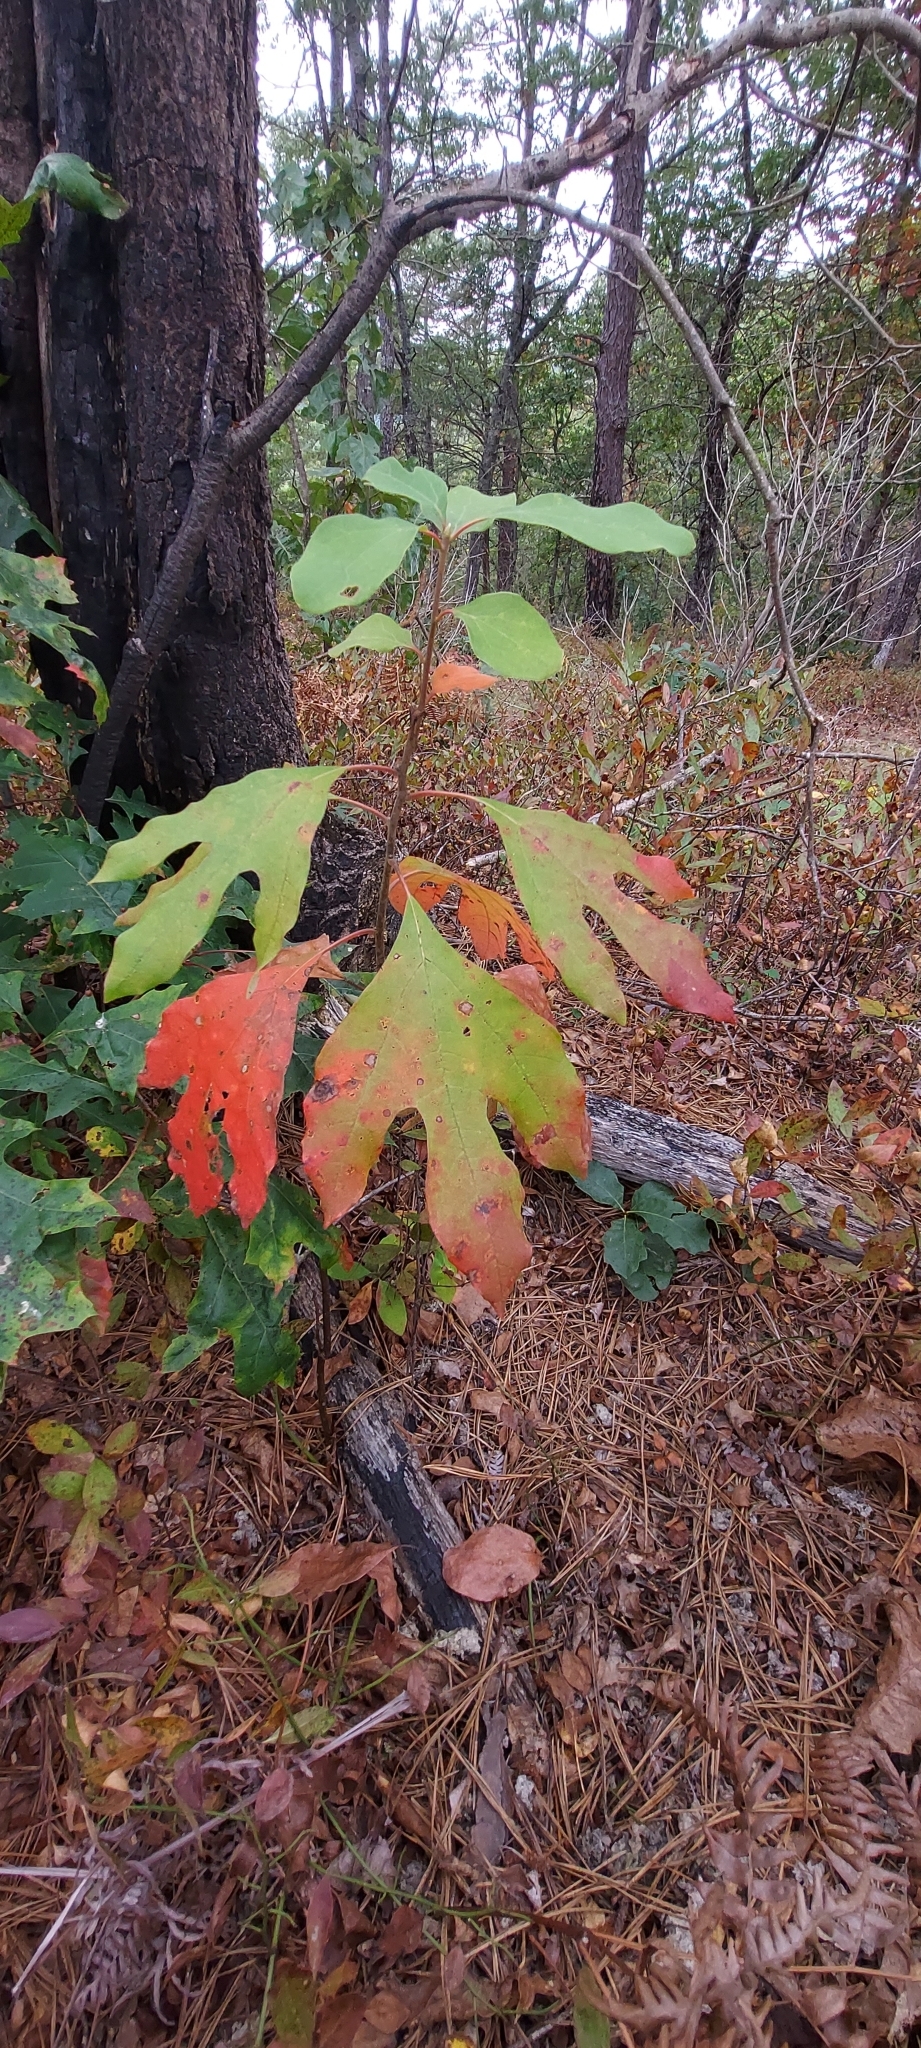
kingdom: Plantae
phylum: Tracheophyta
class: Magnoliopsida
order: Laurales
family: Lauraceae
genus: Sassafras
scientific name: Sassafras albidum
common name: Sassafras
